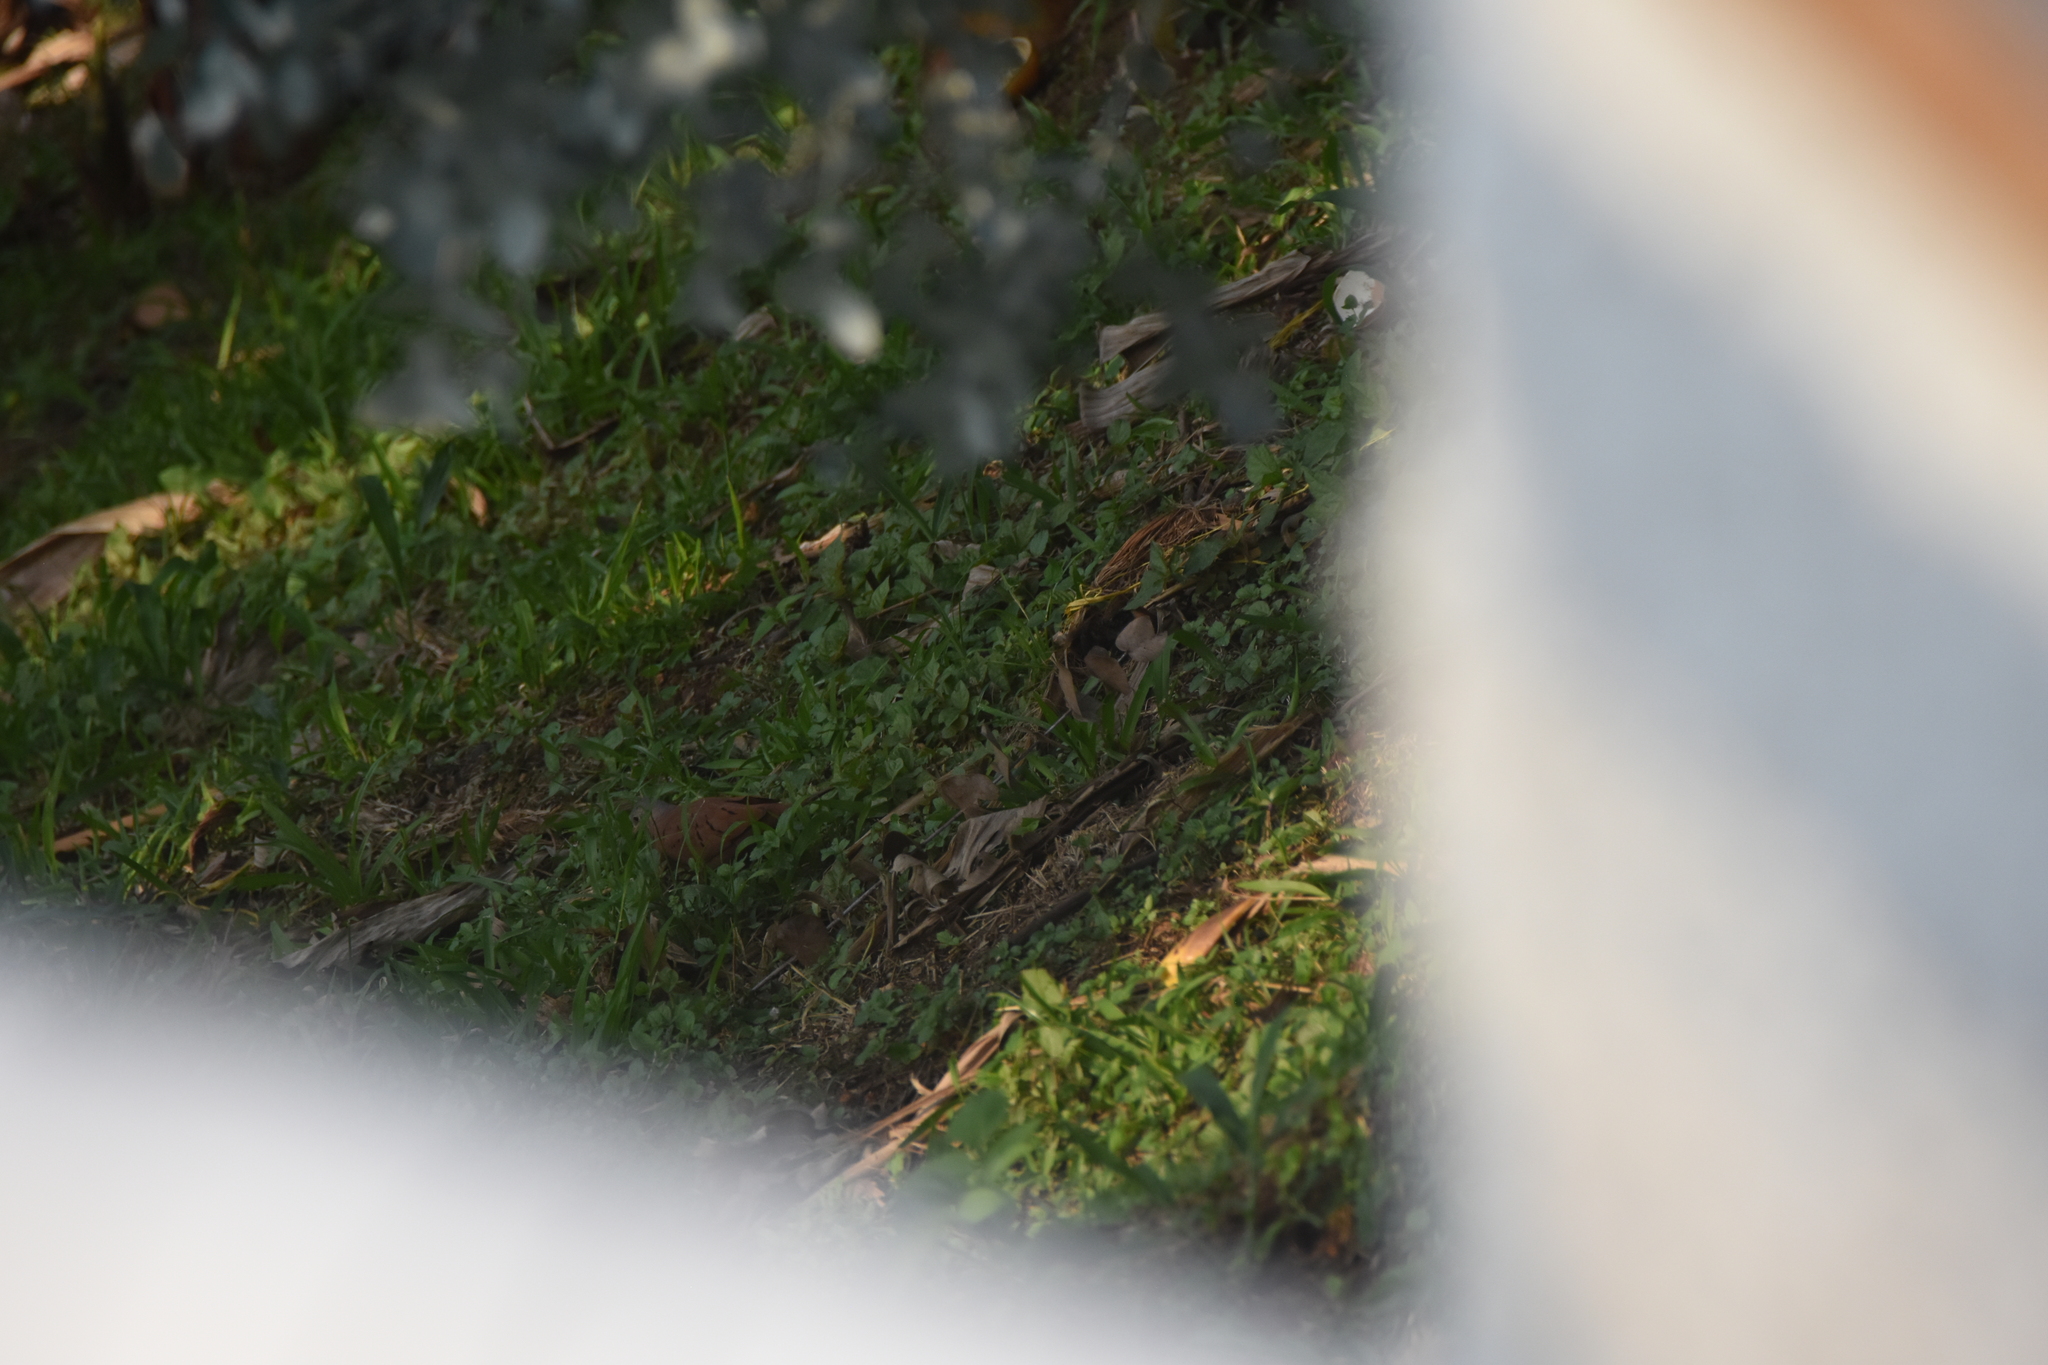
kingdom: Animalia
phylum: Chordata
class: Aves
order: Columbiformes
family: Columbidae
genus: Columbina
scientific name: Columbina talpacoti
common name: Ruddy ground dove
